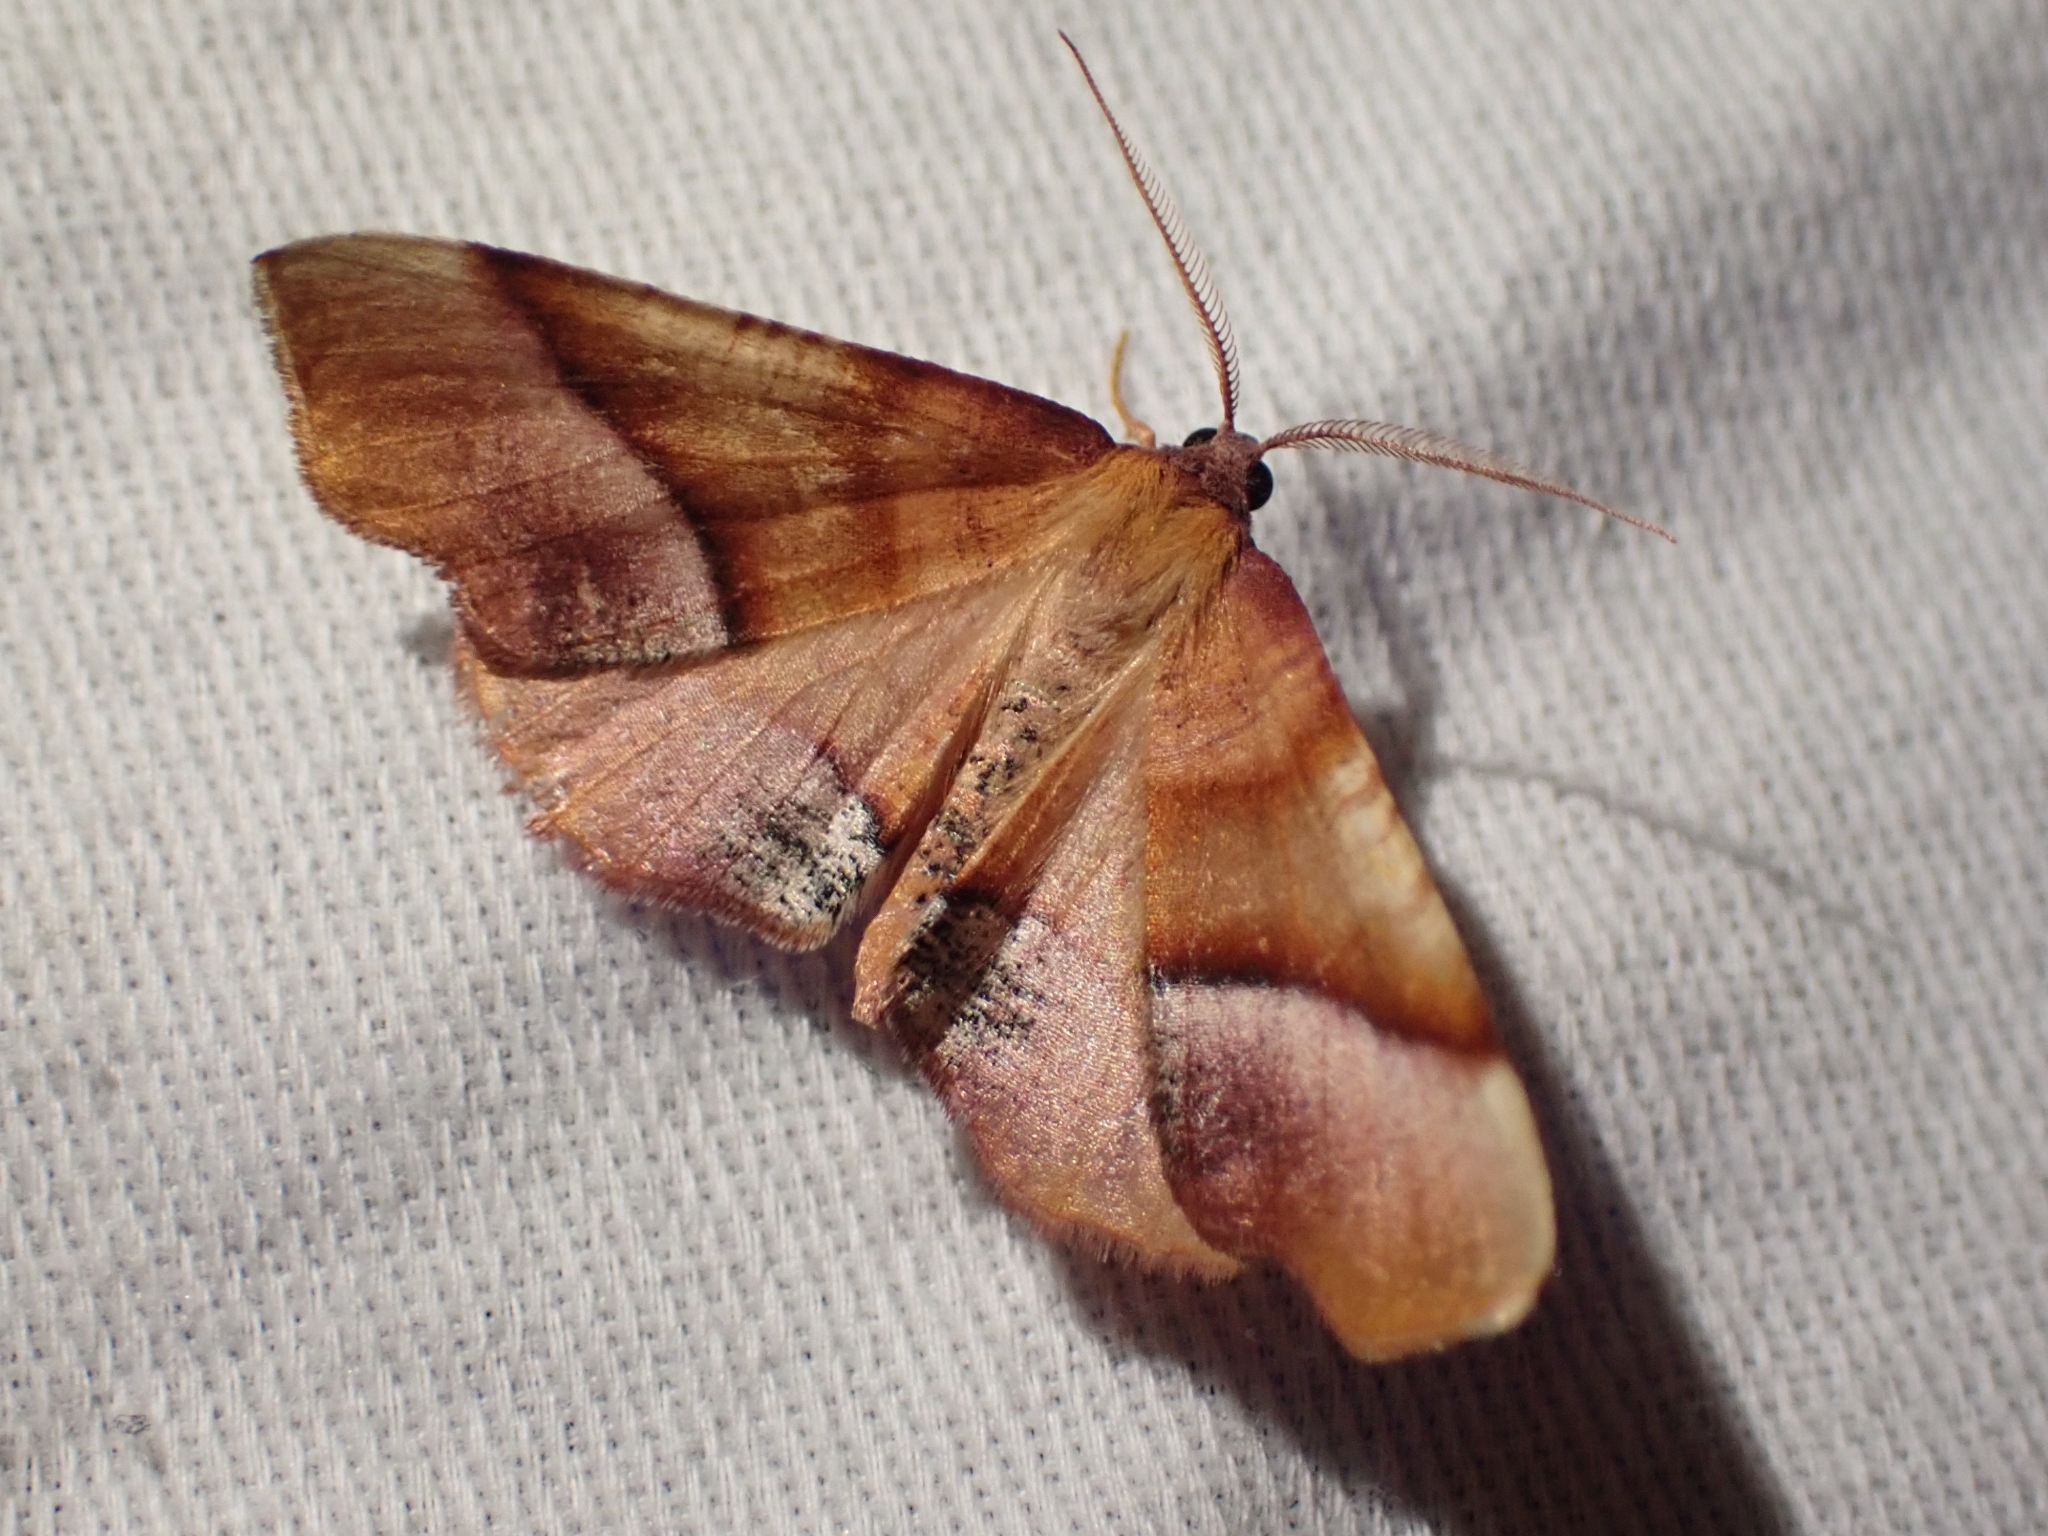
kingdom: Animalia
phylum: Arthropoda
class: Insecta
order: Lepidoptera
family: Geometridae
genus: Plagodis
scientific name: Plagodis phlogosaria
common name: Straight-lined plagodis
